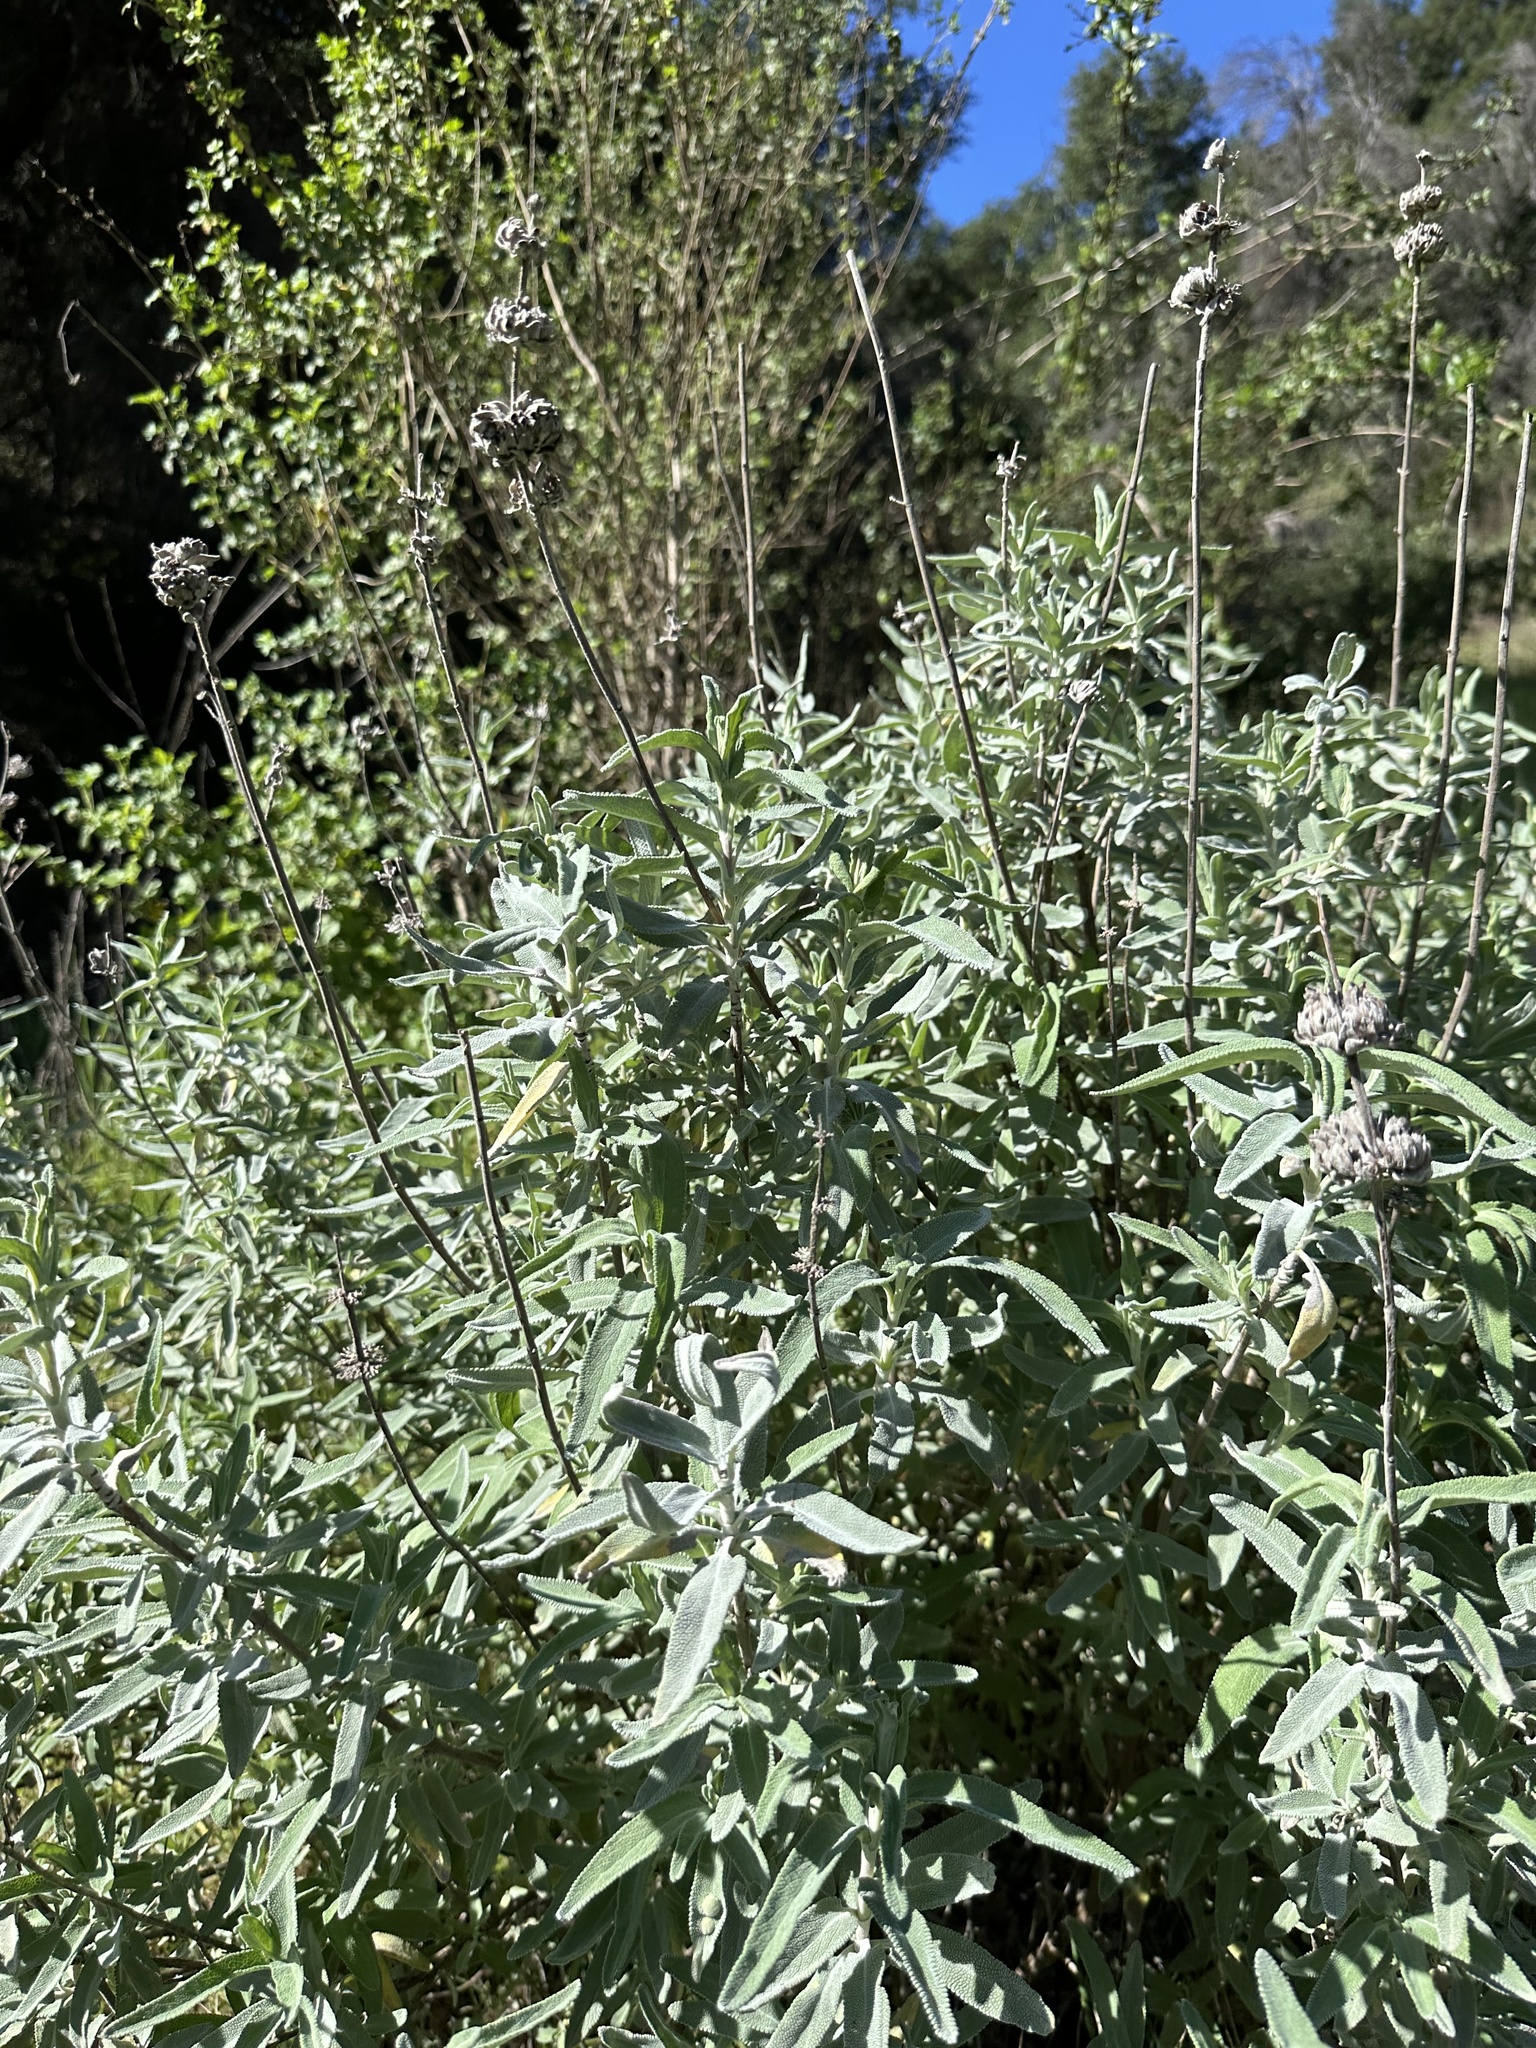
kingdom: Plantae
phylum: Tracheophyta
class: Magnoliopsida
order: Lamiales
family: Lamiaceae
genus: Salvia
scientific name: Salvia leucophylla
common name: Purple sage
